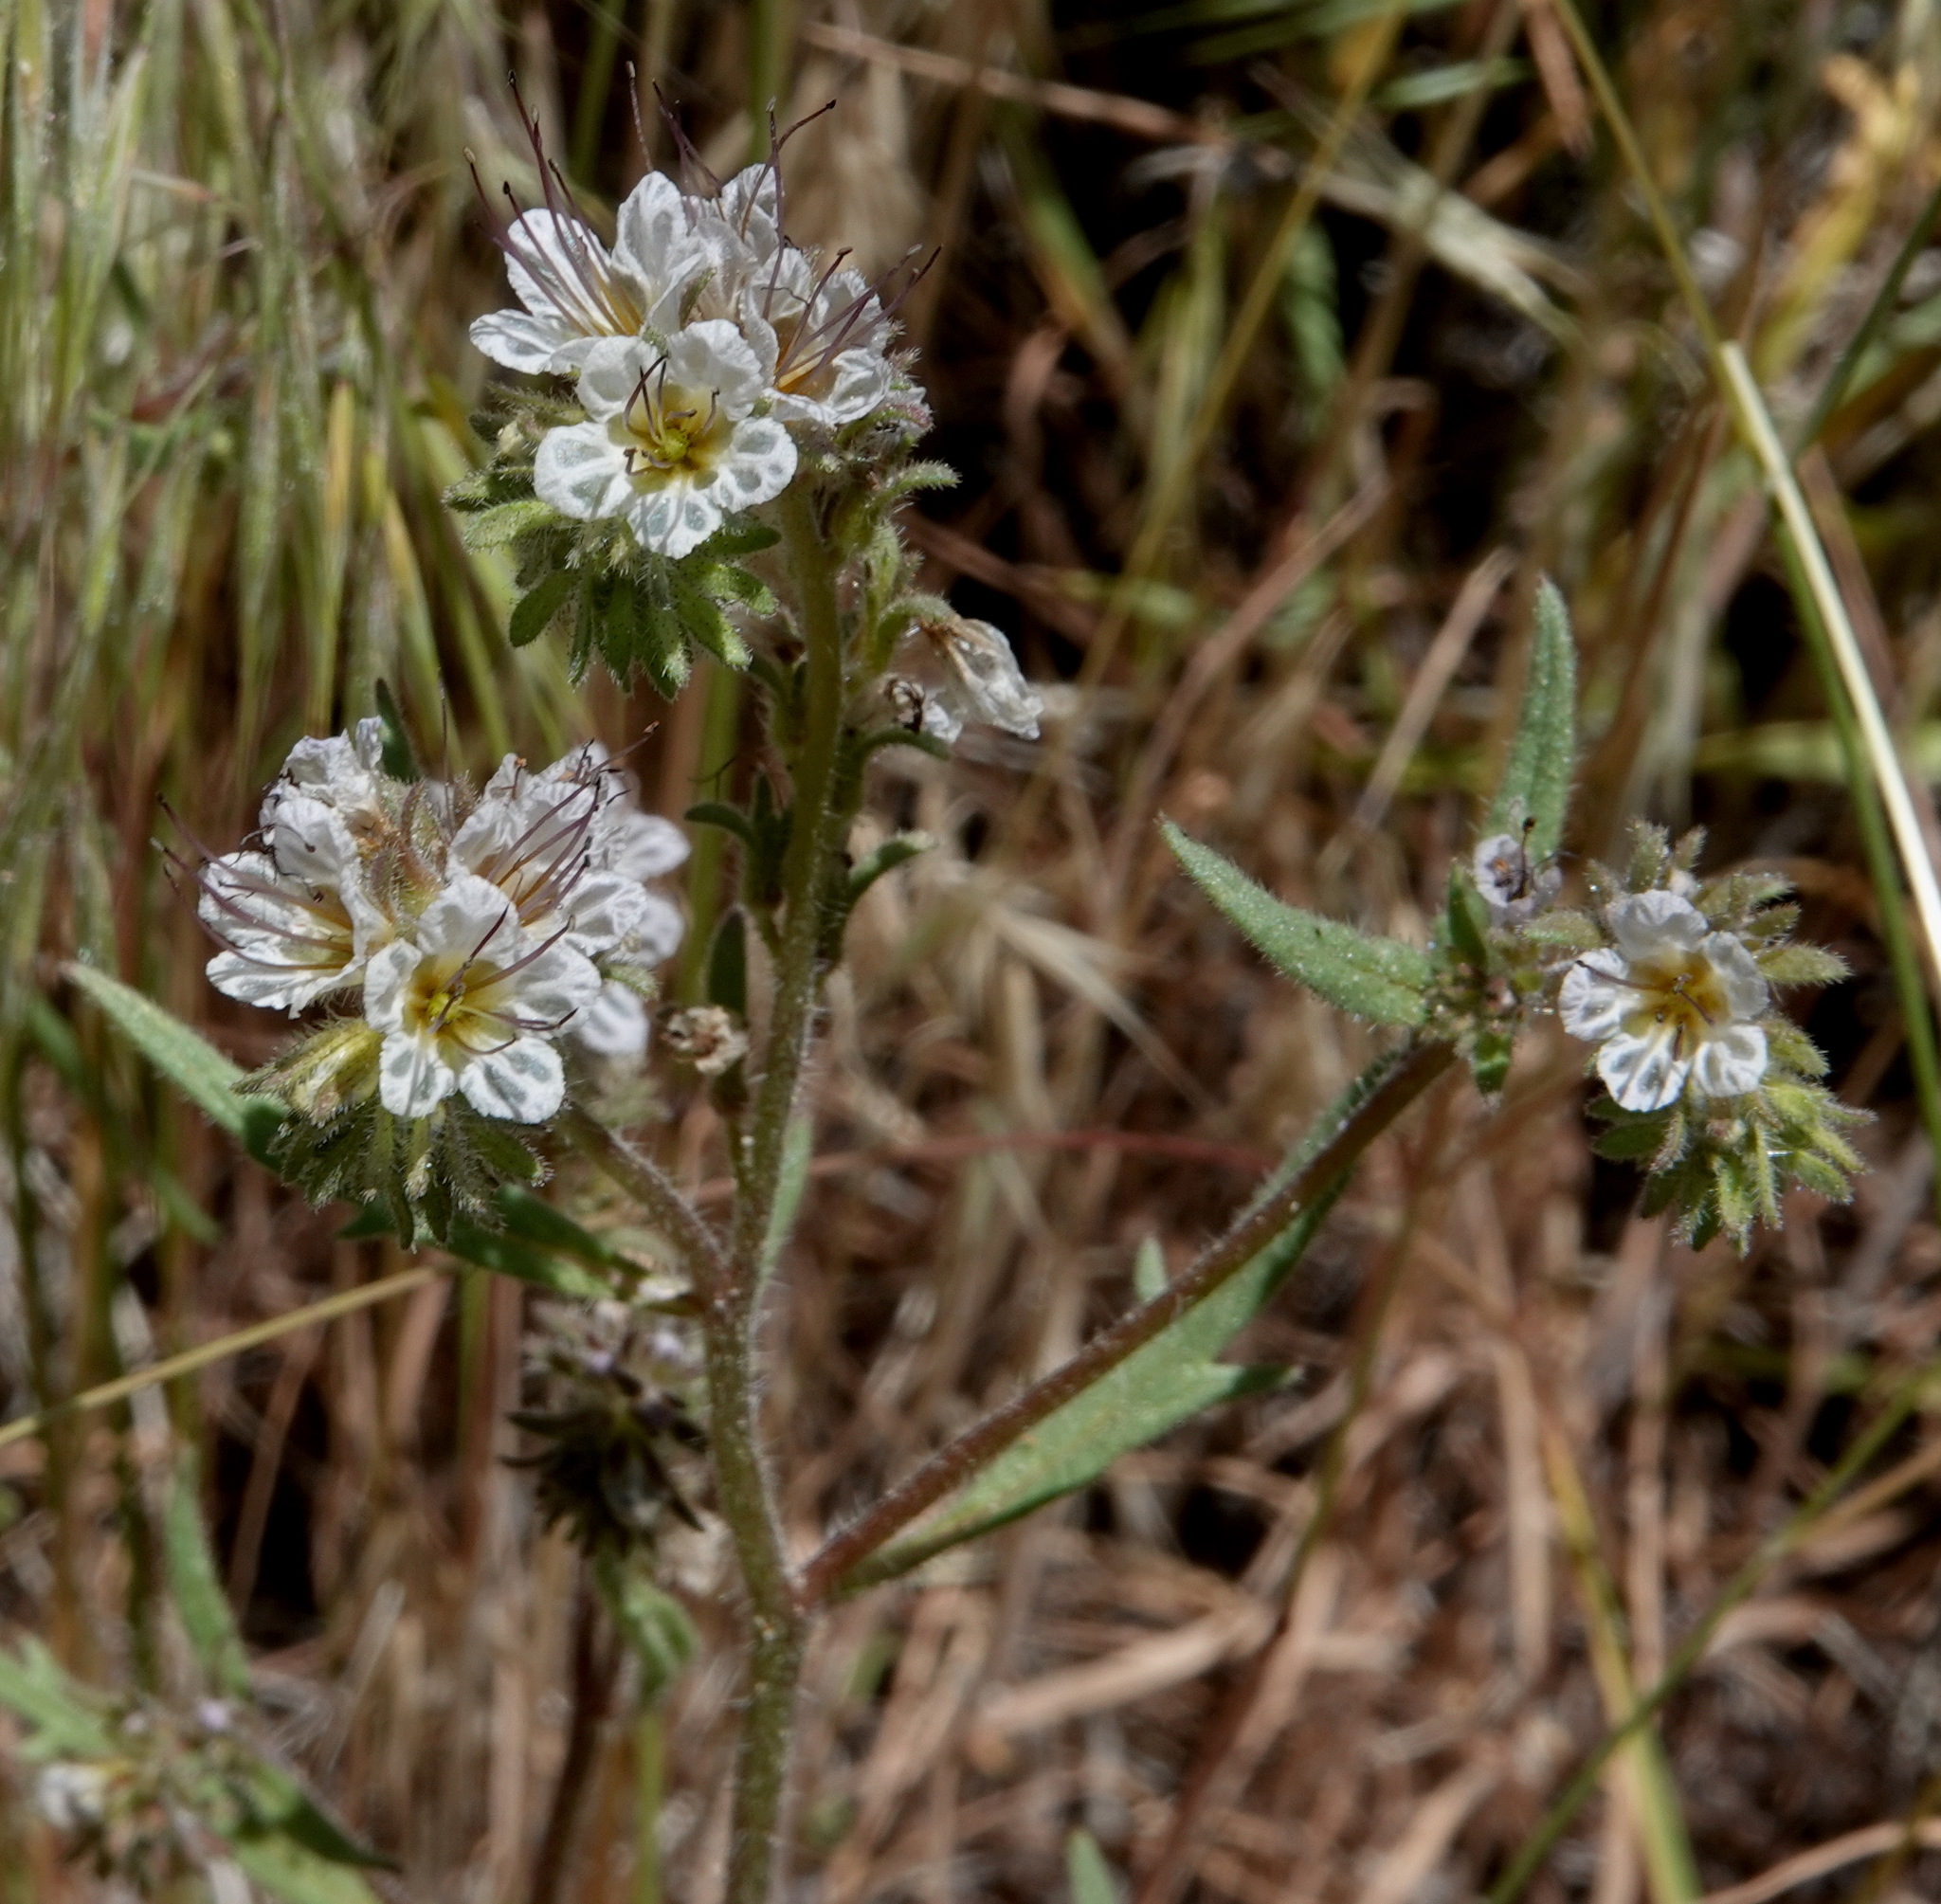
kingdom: Plantae
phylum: Tracheophyta
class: Magnoliopsida
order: Boraginales
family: Hydrophyllaceae
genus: Phacelia
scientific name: Phacelia mohavensis
